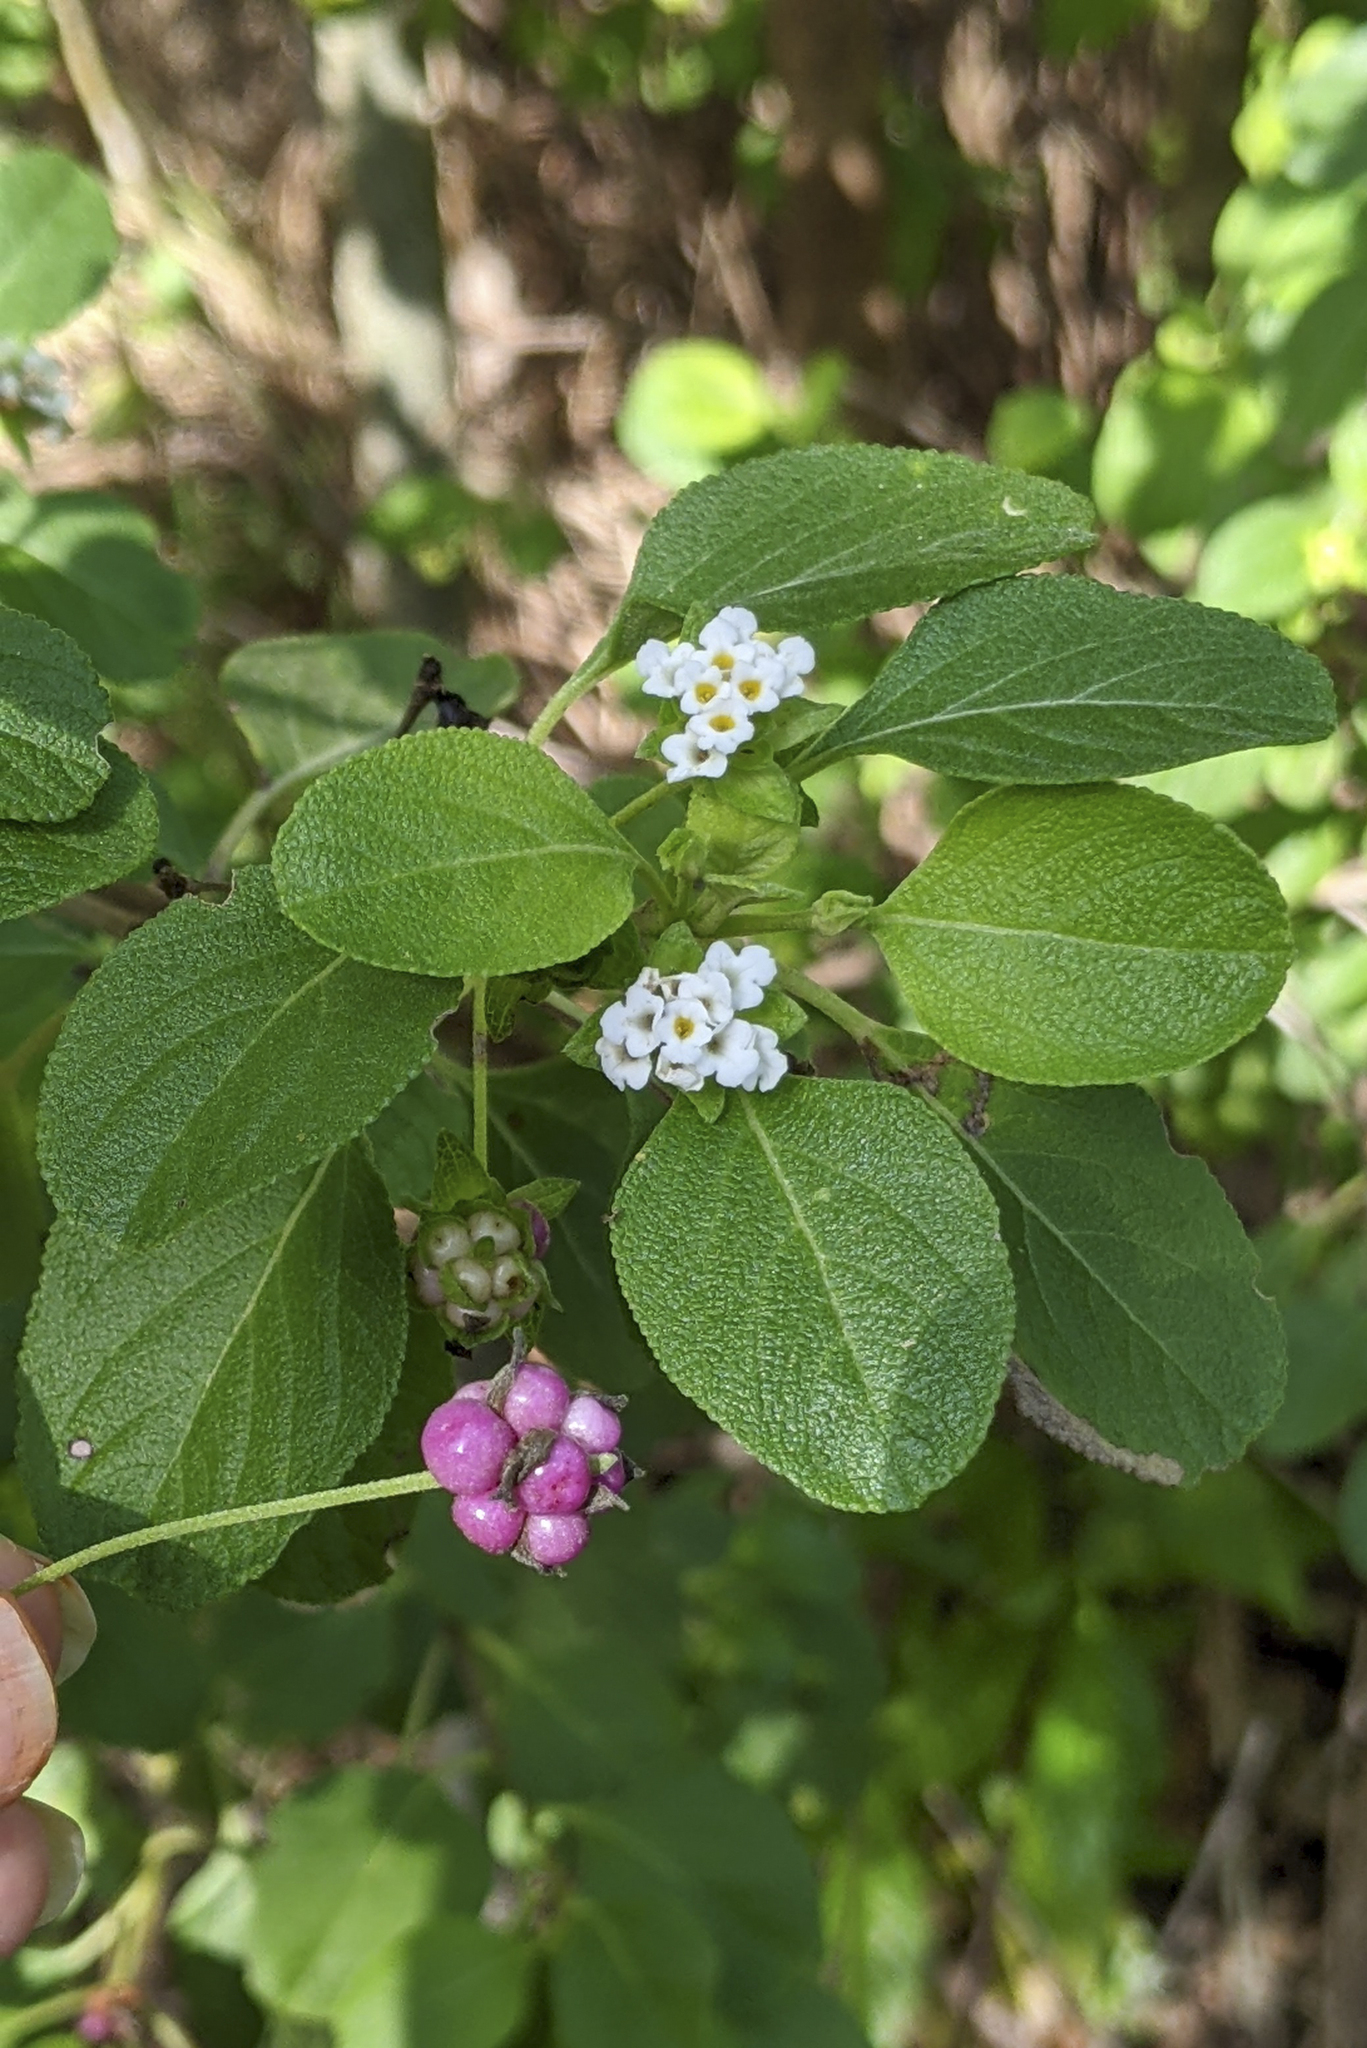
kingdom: Plantae
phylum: Tracheophyta
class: Magnoliopsida
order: Lamiales
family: Verbenaceae
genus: Lantana
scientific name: Lantana involucrata
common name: Black sage
